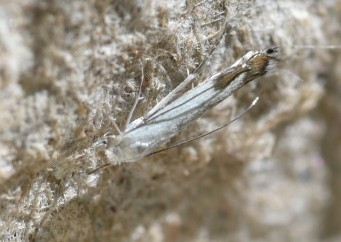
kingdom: Animalia
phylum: Arthropoda
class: Insecta
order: Lepidoptera
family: Lyonetiidae
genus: Lyonetia
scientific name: Lyonetia clerkella
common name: Apple leaf miner
